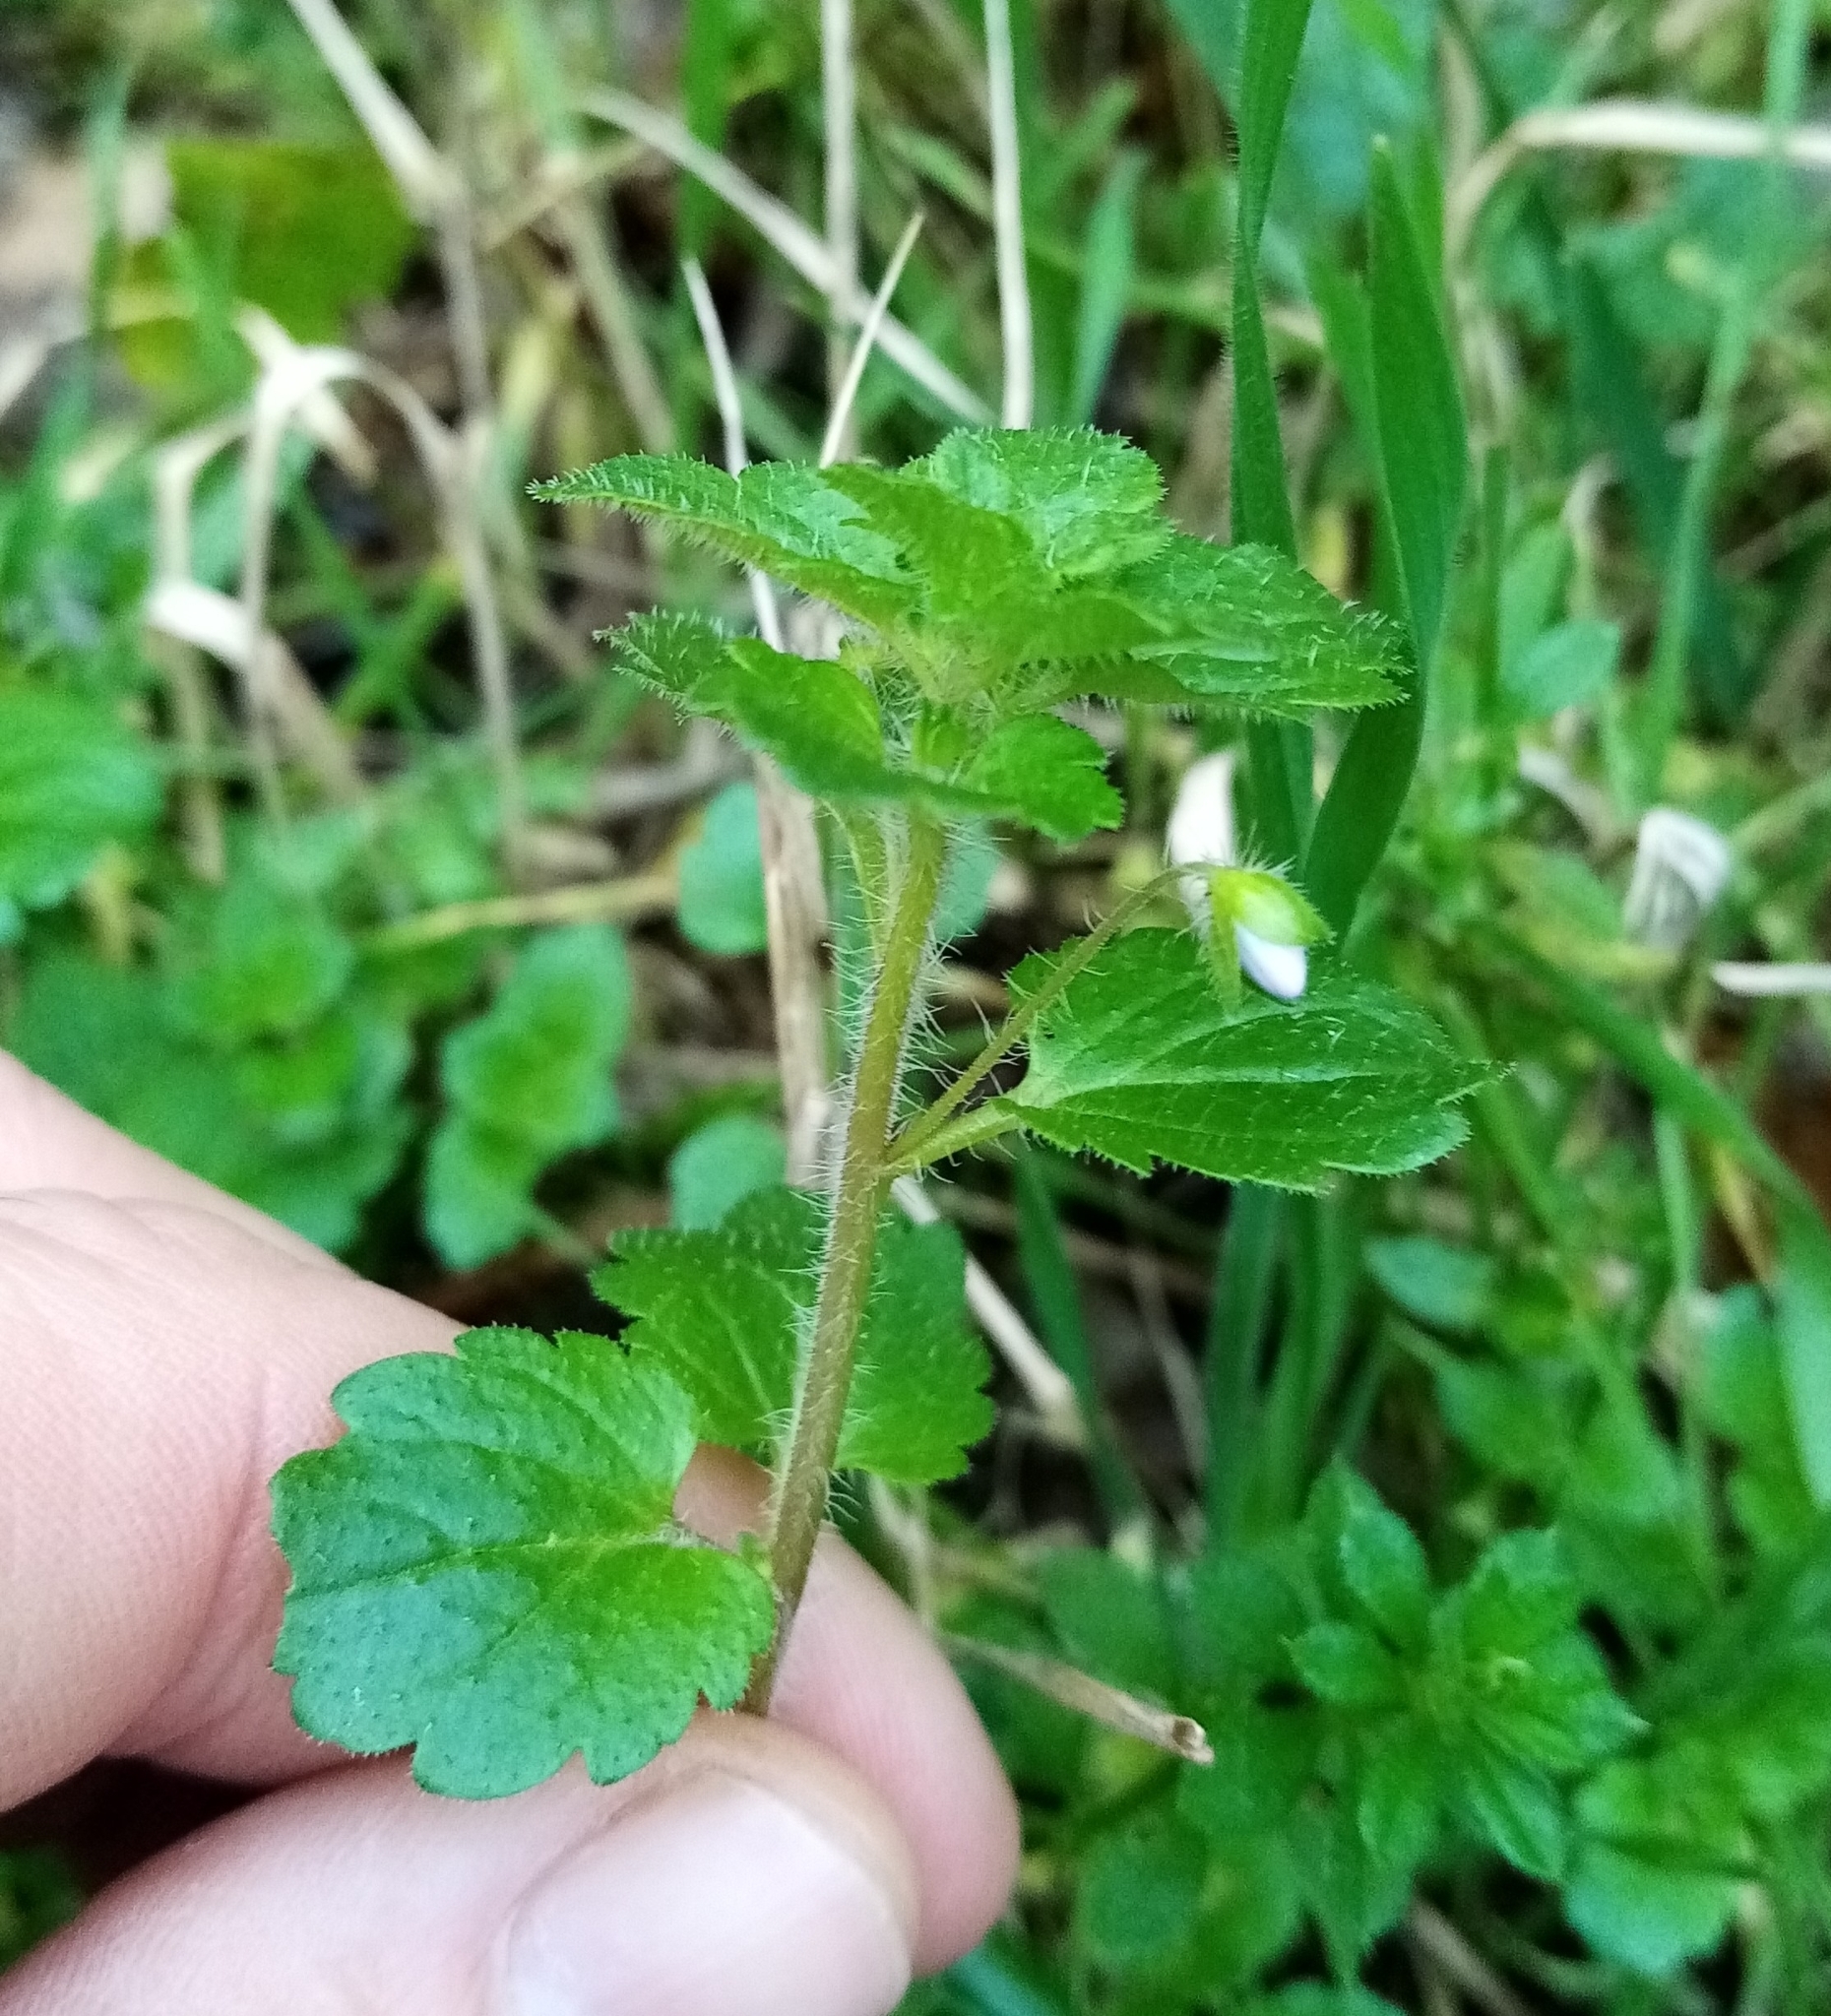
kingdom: Plantae
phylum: Tracheophyta
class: Magnoliopsida
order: Lamiales
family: Plantaginaceae
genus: Veronica
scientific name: Veronica persica
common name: Common field-speedwell
